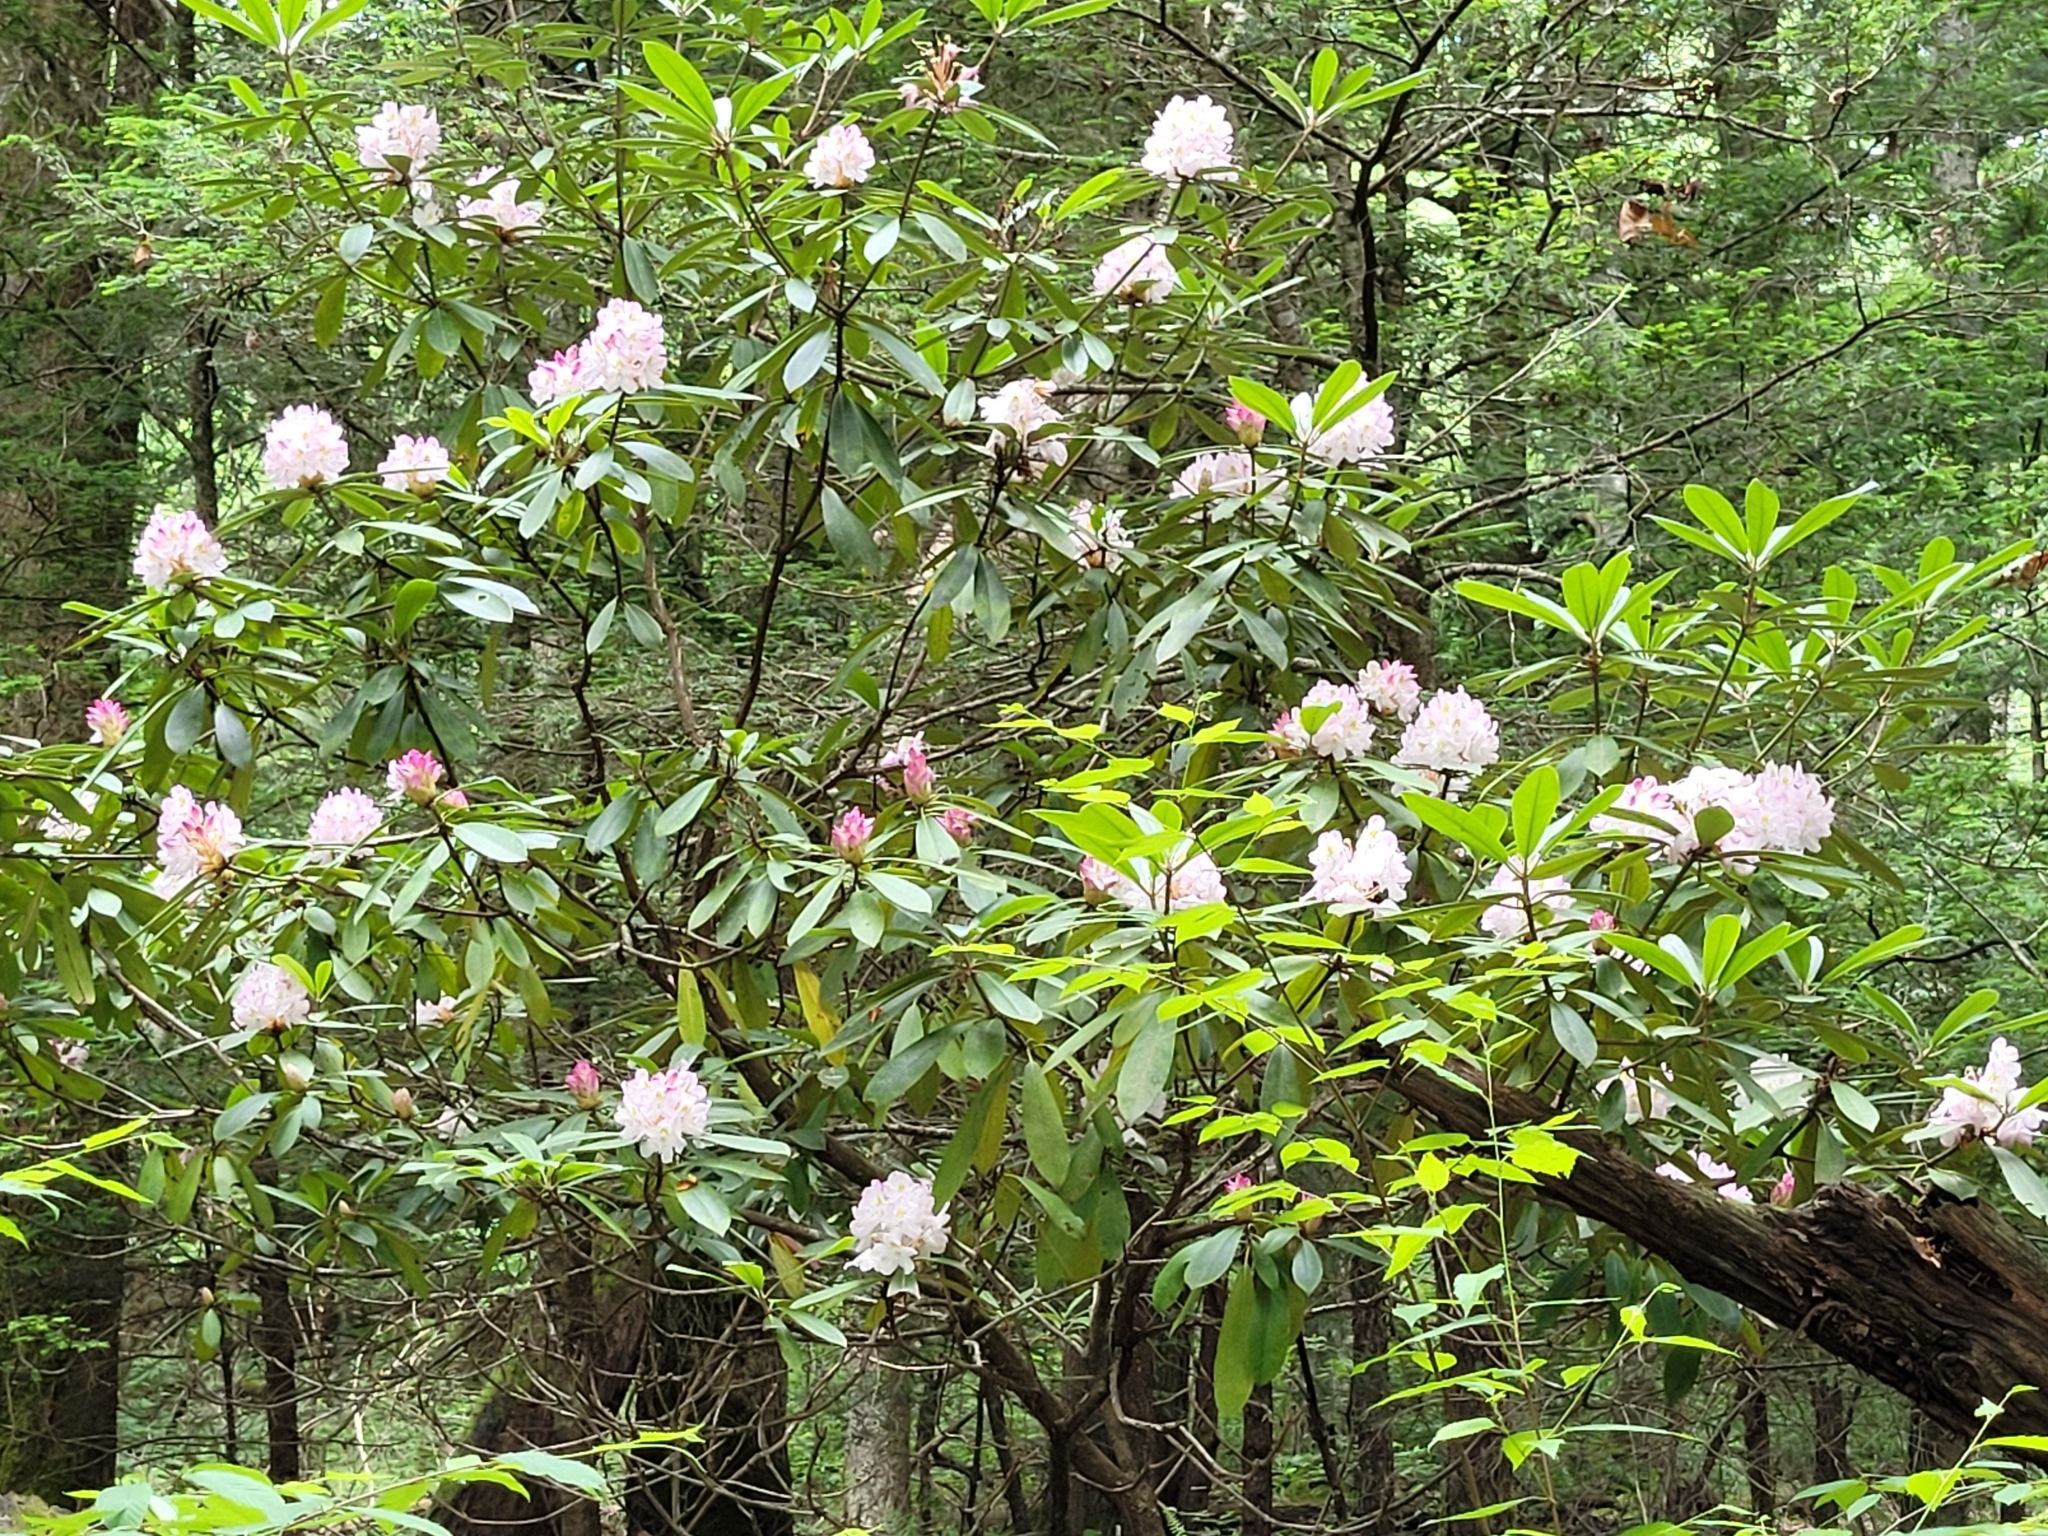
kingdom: Plantae
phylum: Tracheophyta
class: Magnoliopsida
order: Ericales
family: Ericaceae
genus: Rhododendron
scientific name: Rhododendron maximum
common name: Great rhododendron
